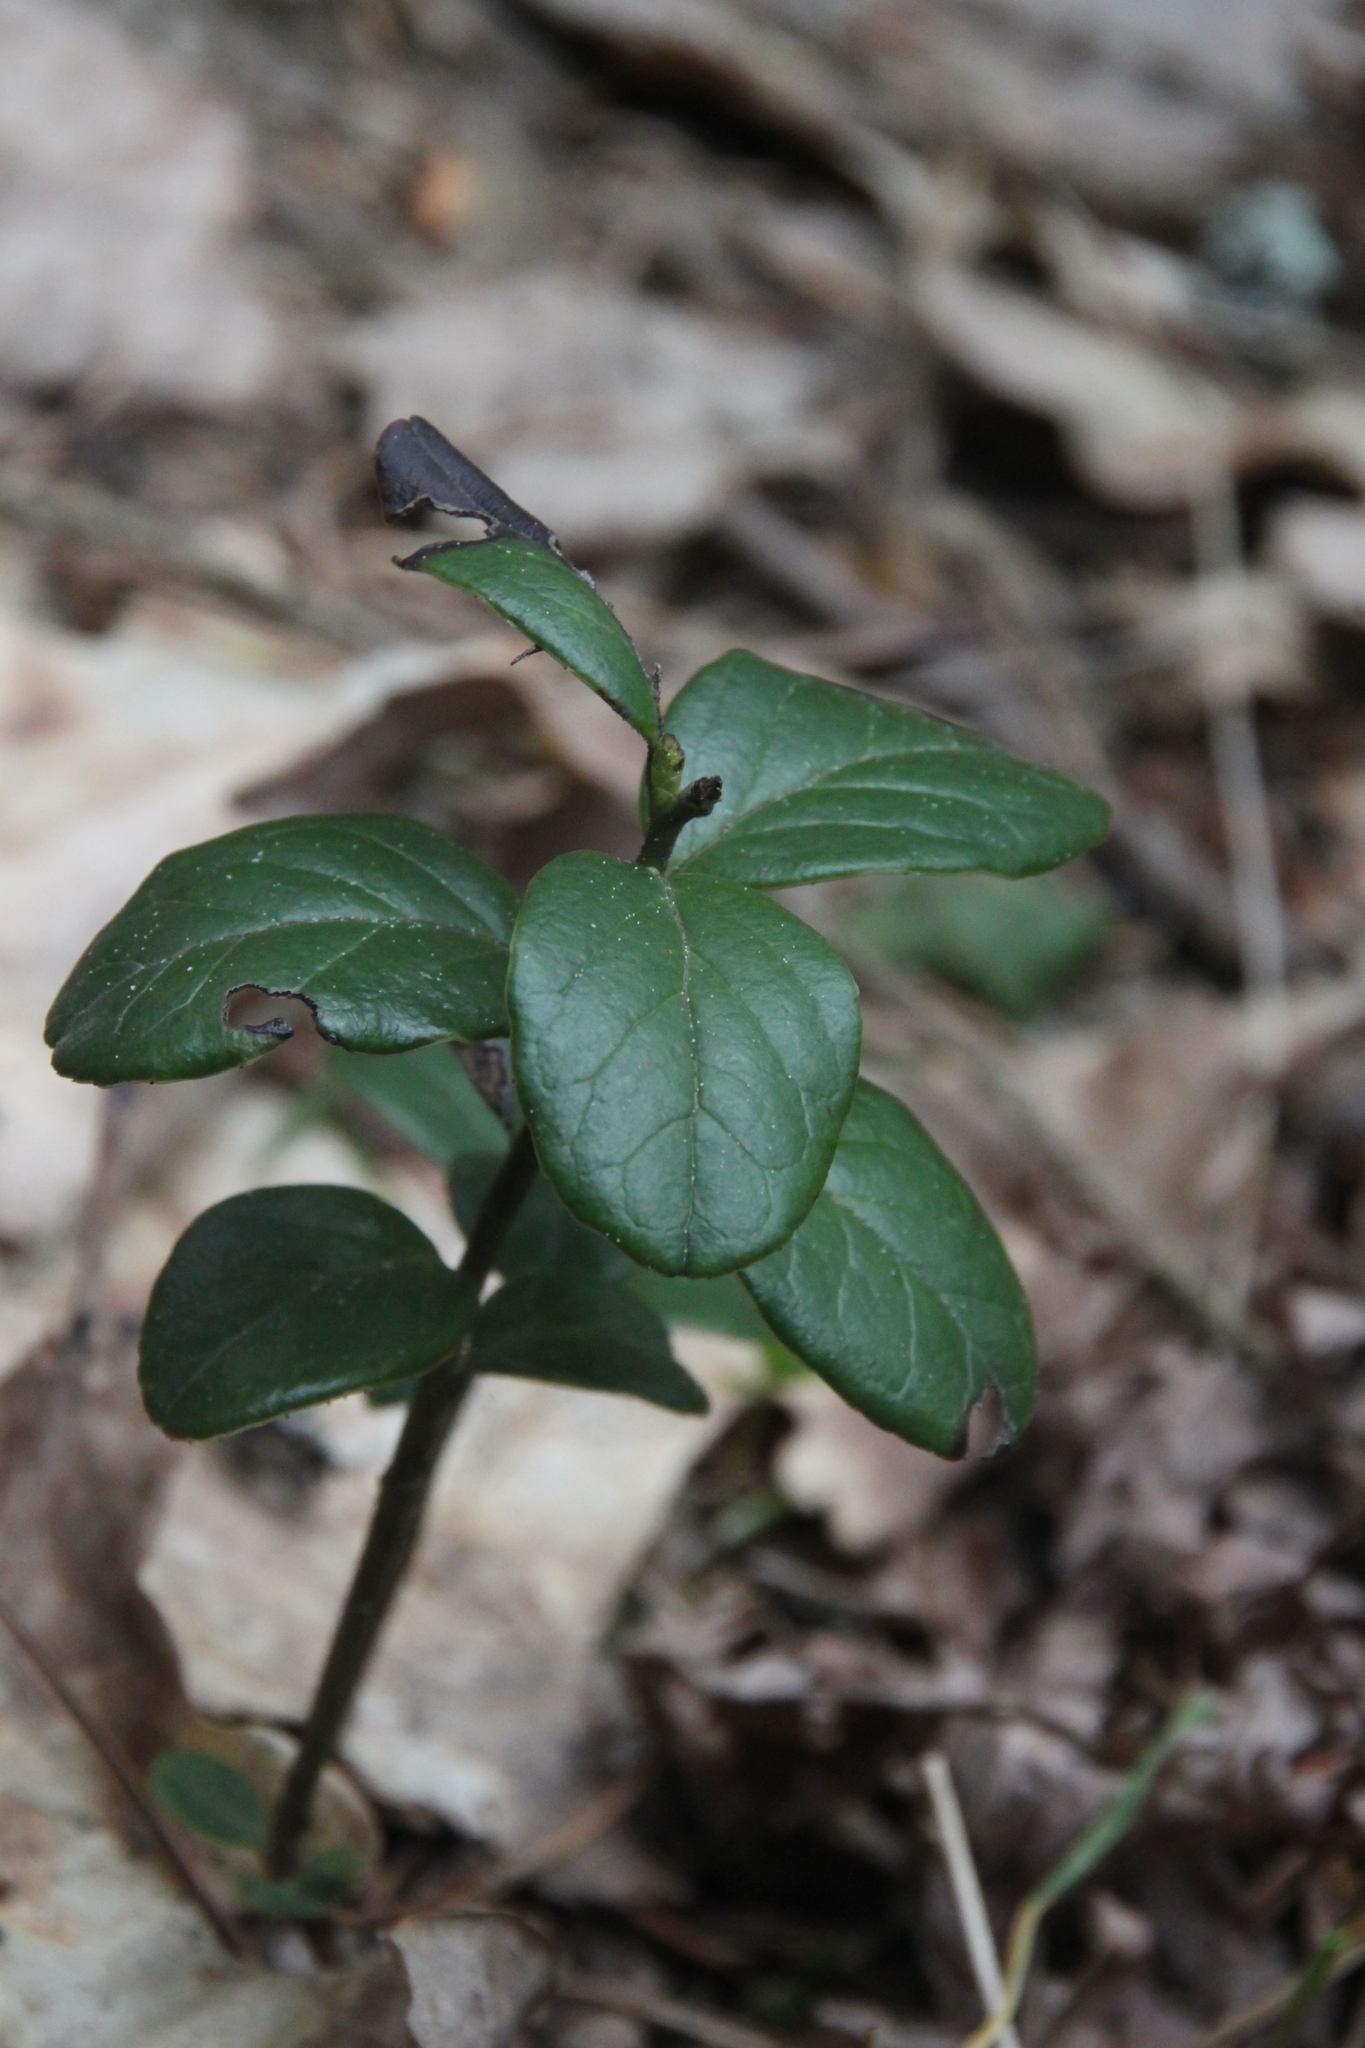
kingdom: Plantae
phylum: Tracheophyta
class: Magnoliopsida
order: Ericales
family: Ericaceae
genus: Vaccinium
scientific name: Vaccinium vitis-idaea
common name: Cowberry
